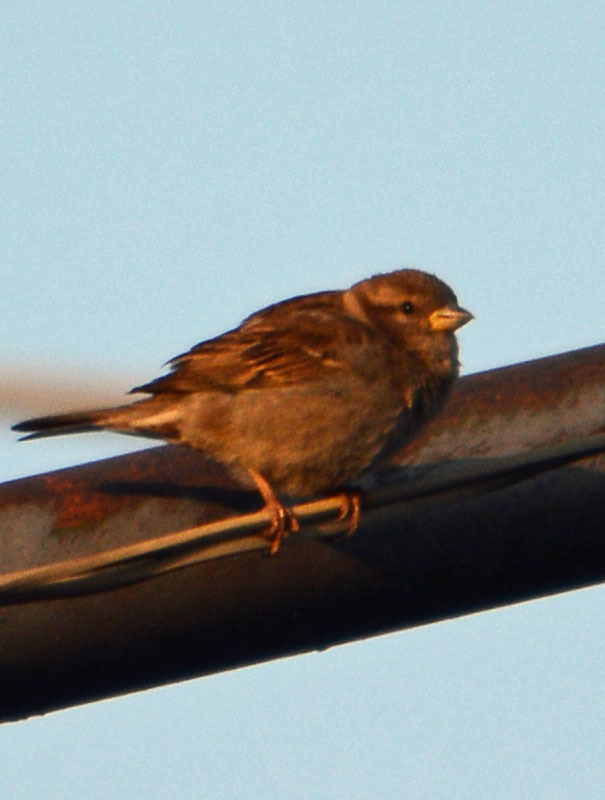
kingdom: Animalia
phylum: Chordata
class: Aves
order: Passeriformes
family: Passeridae
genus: Passer
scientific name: Passer domesticus
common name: House sparrow
